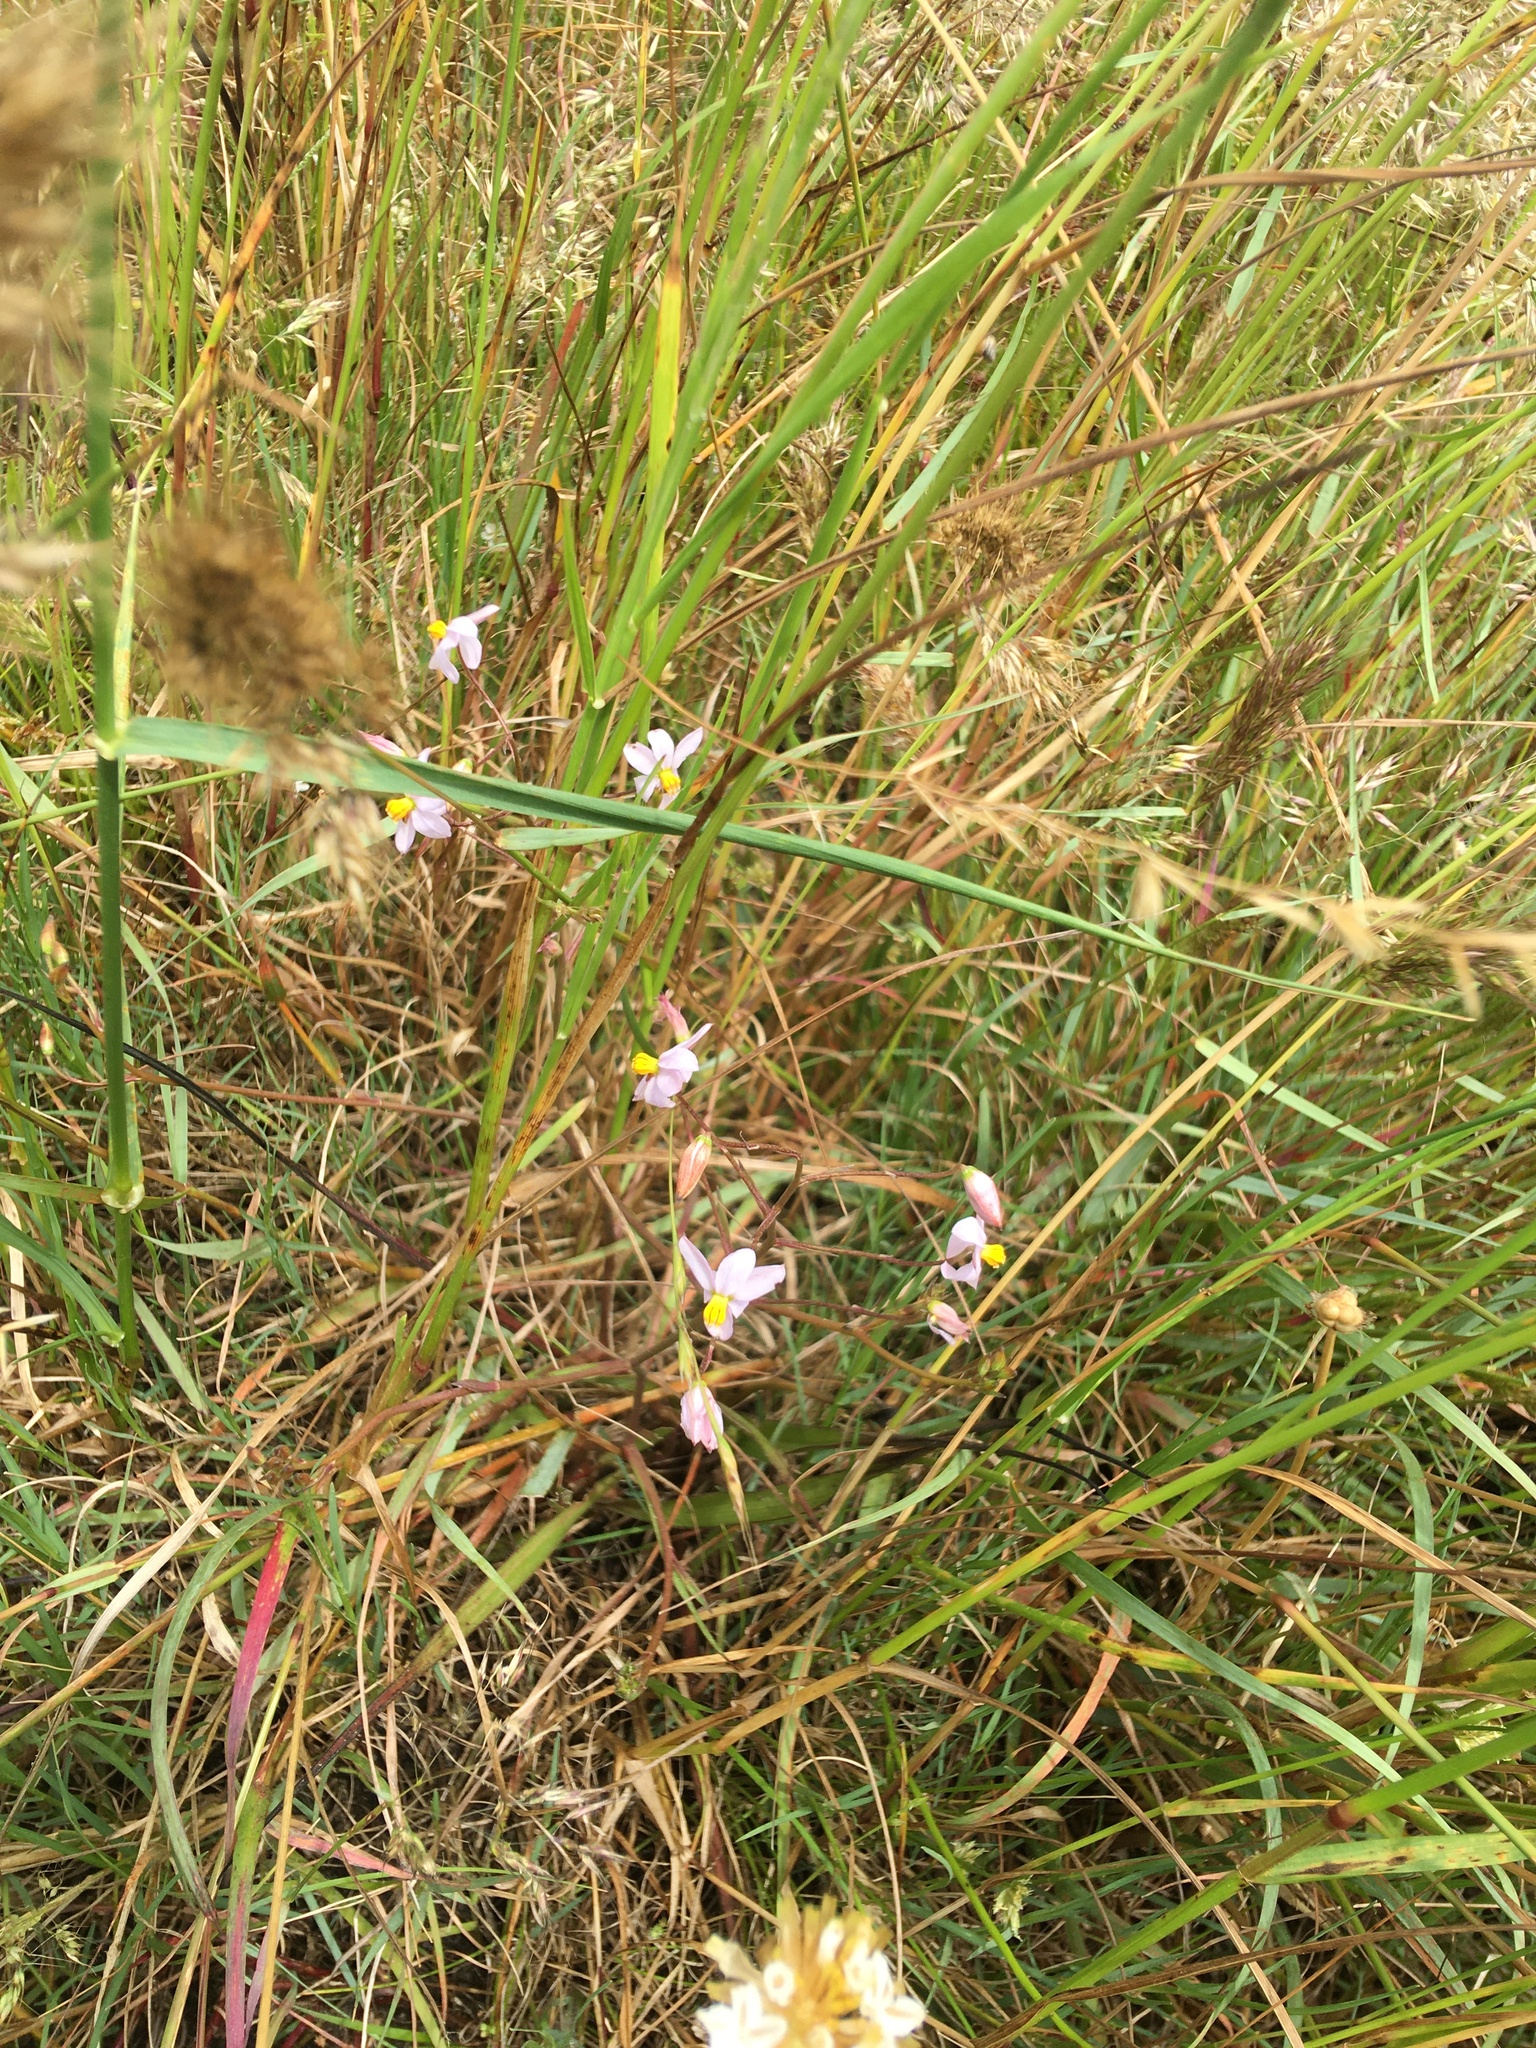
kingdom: Plantae
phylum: Tracheophyta
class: Liliopsida
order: Asparagales
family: Tecophilaeaceae
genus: Cyanella
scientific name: Cyanella hyacinthoides
